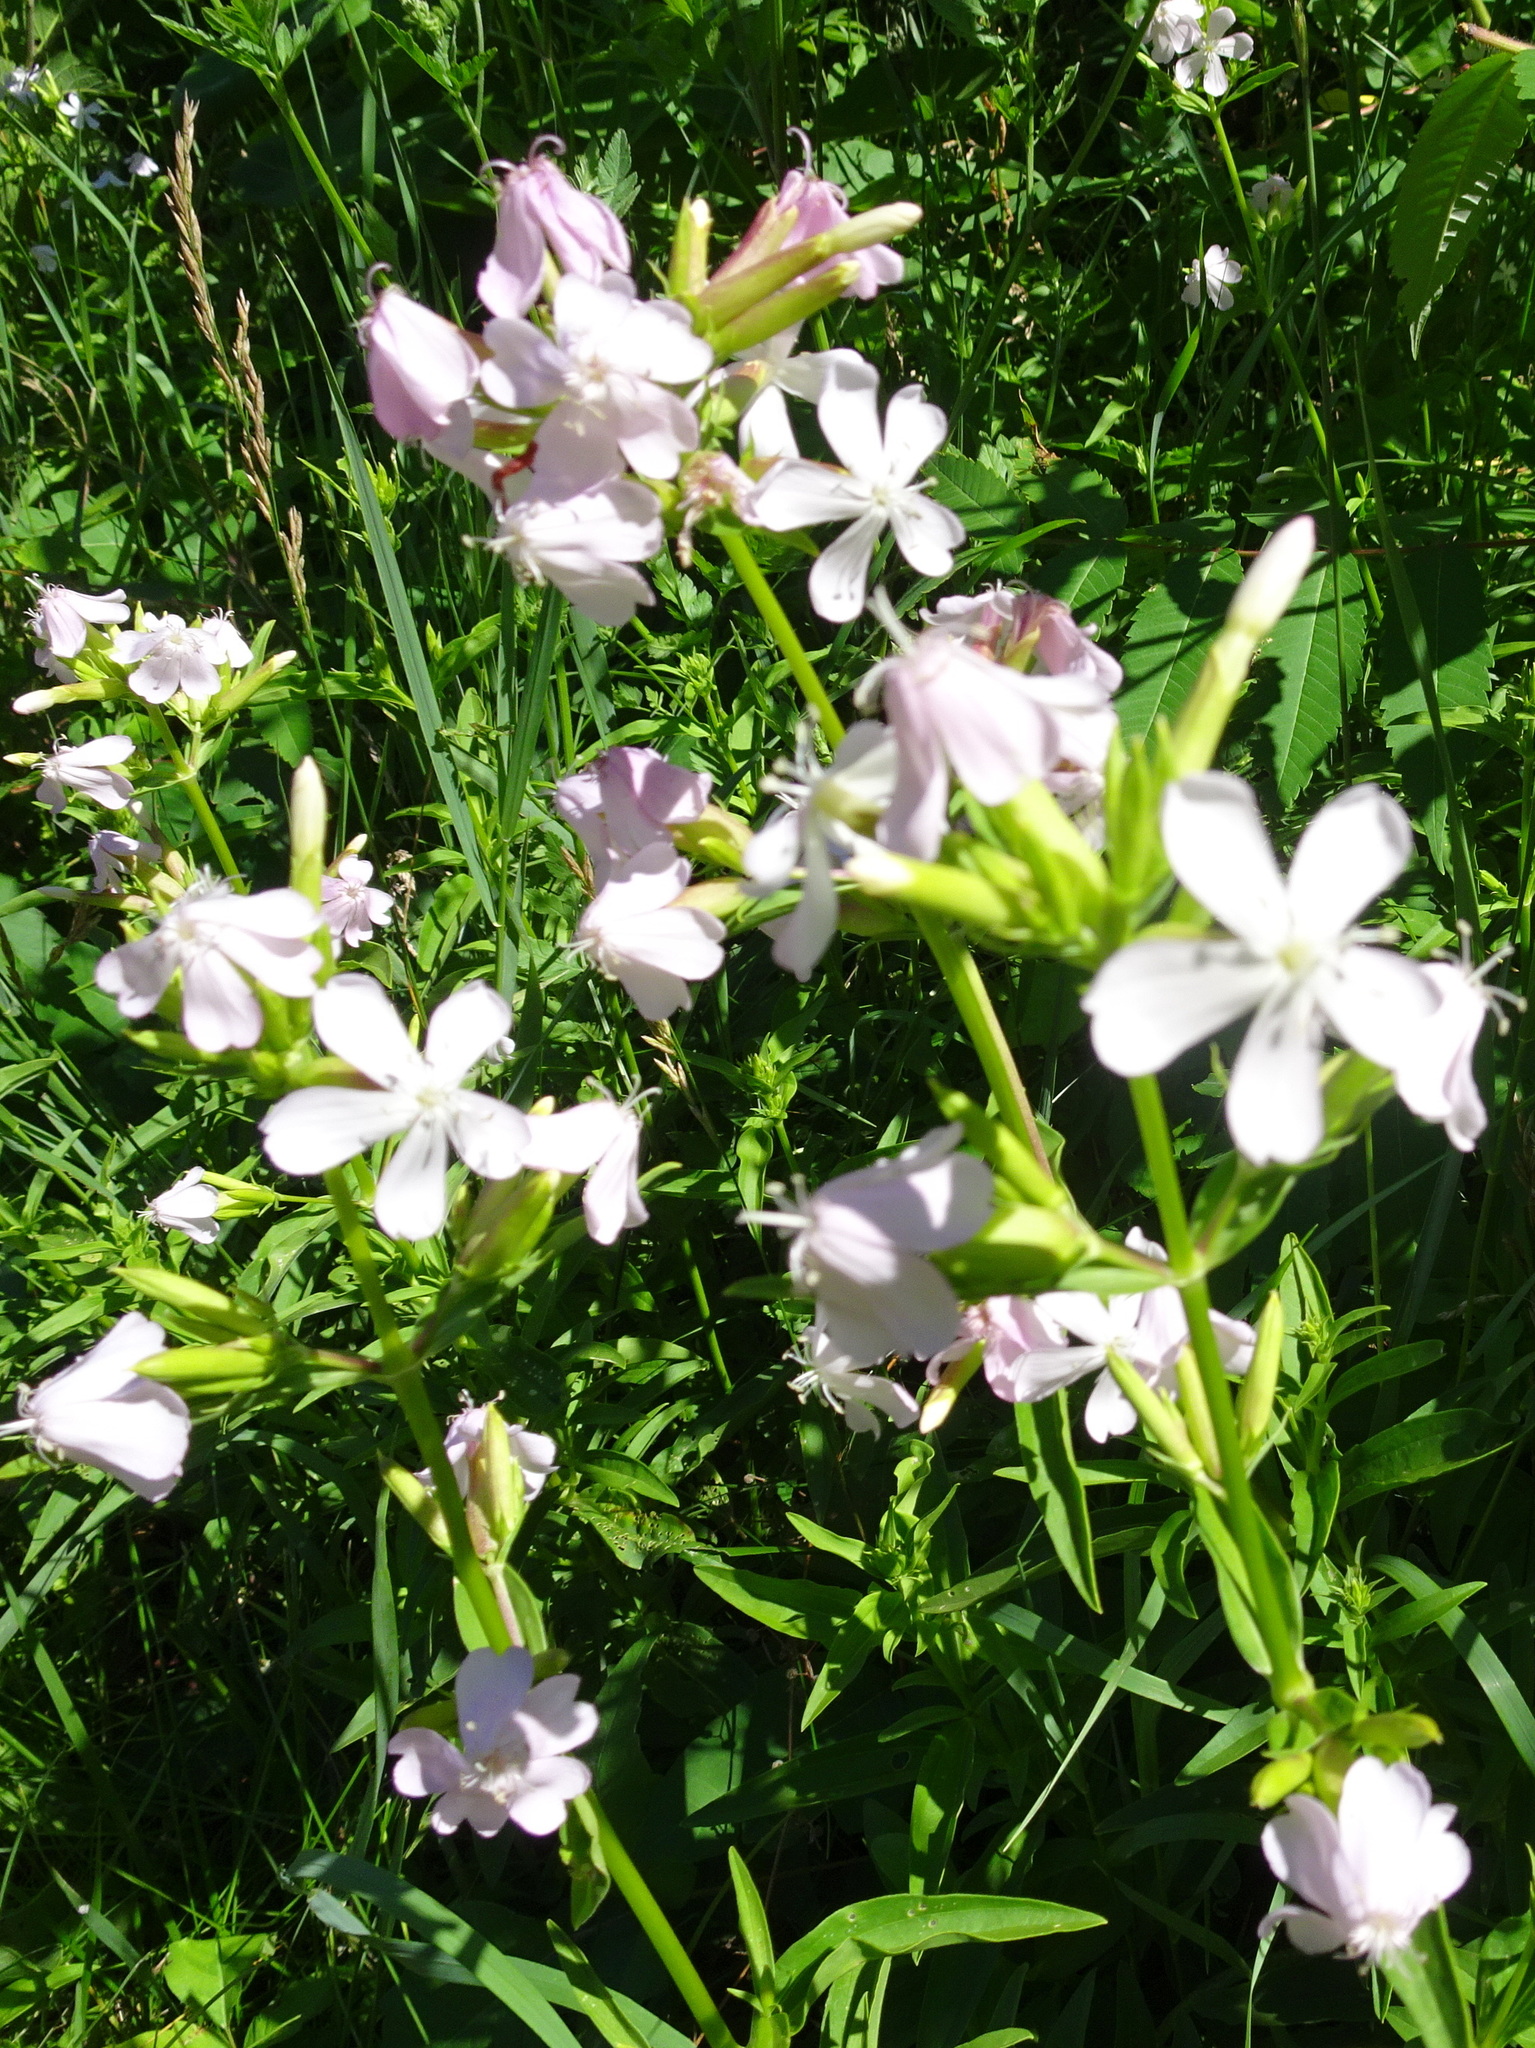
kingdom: Plantae
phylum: Tracheophyta
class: Magnoliopsida
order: Caryophyllales
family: Caryophyllaceae
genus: Saponaria
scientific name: Saponaria officinalis
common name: Soapwort
